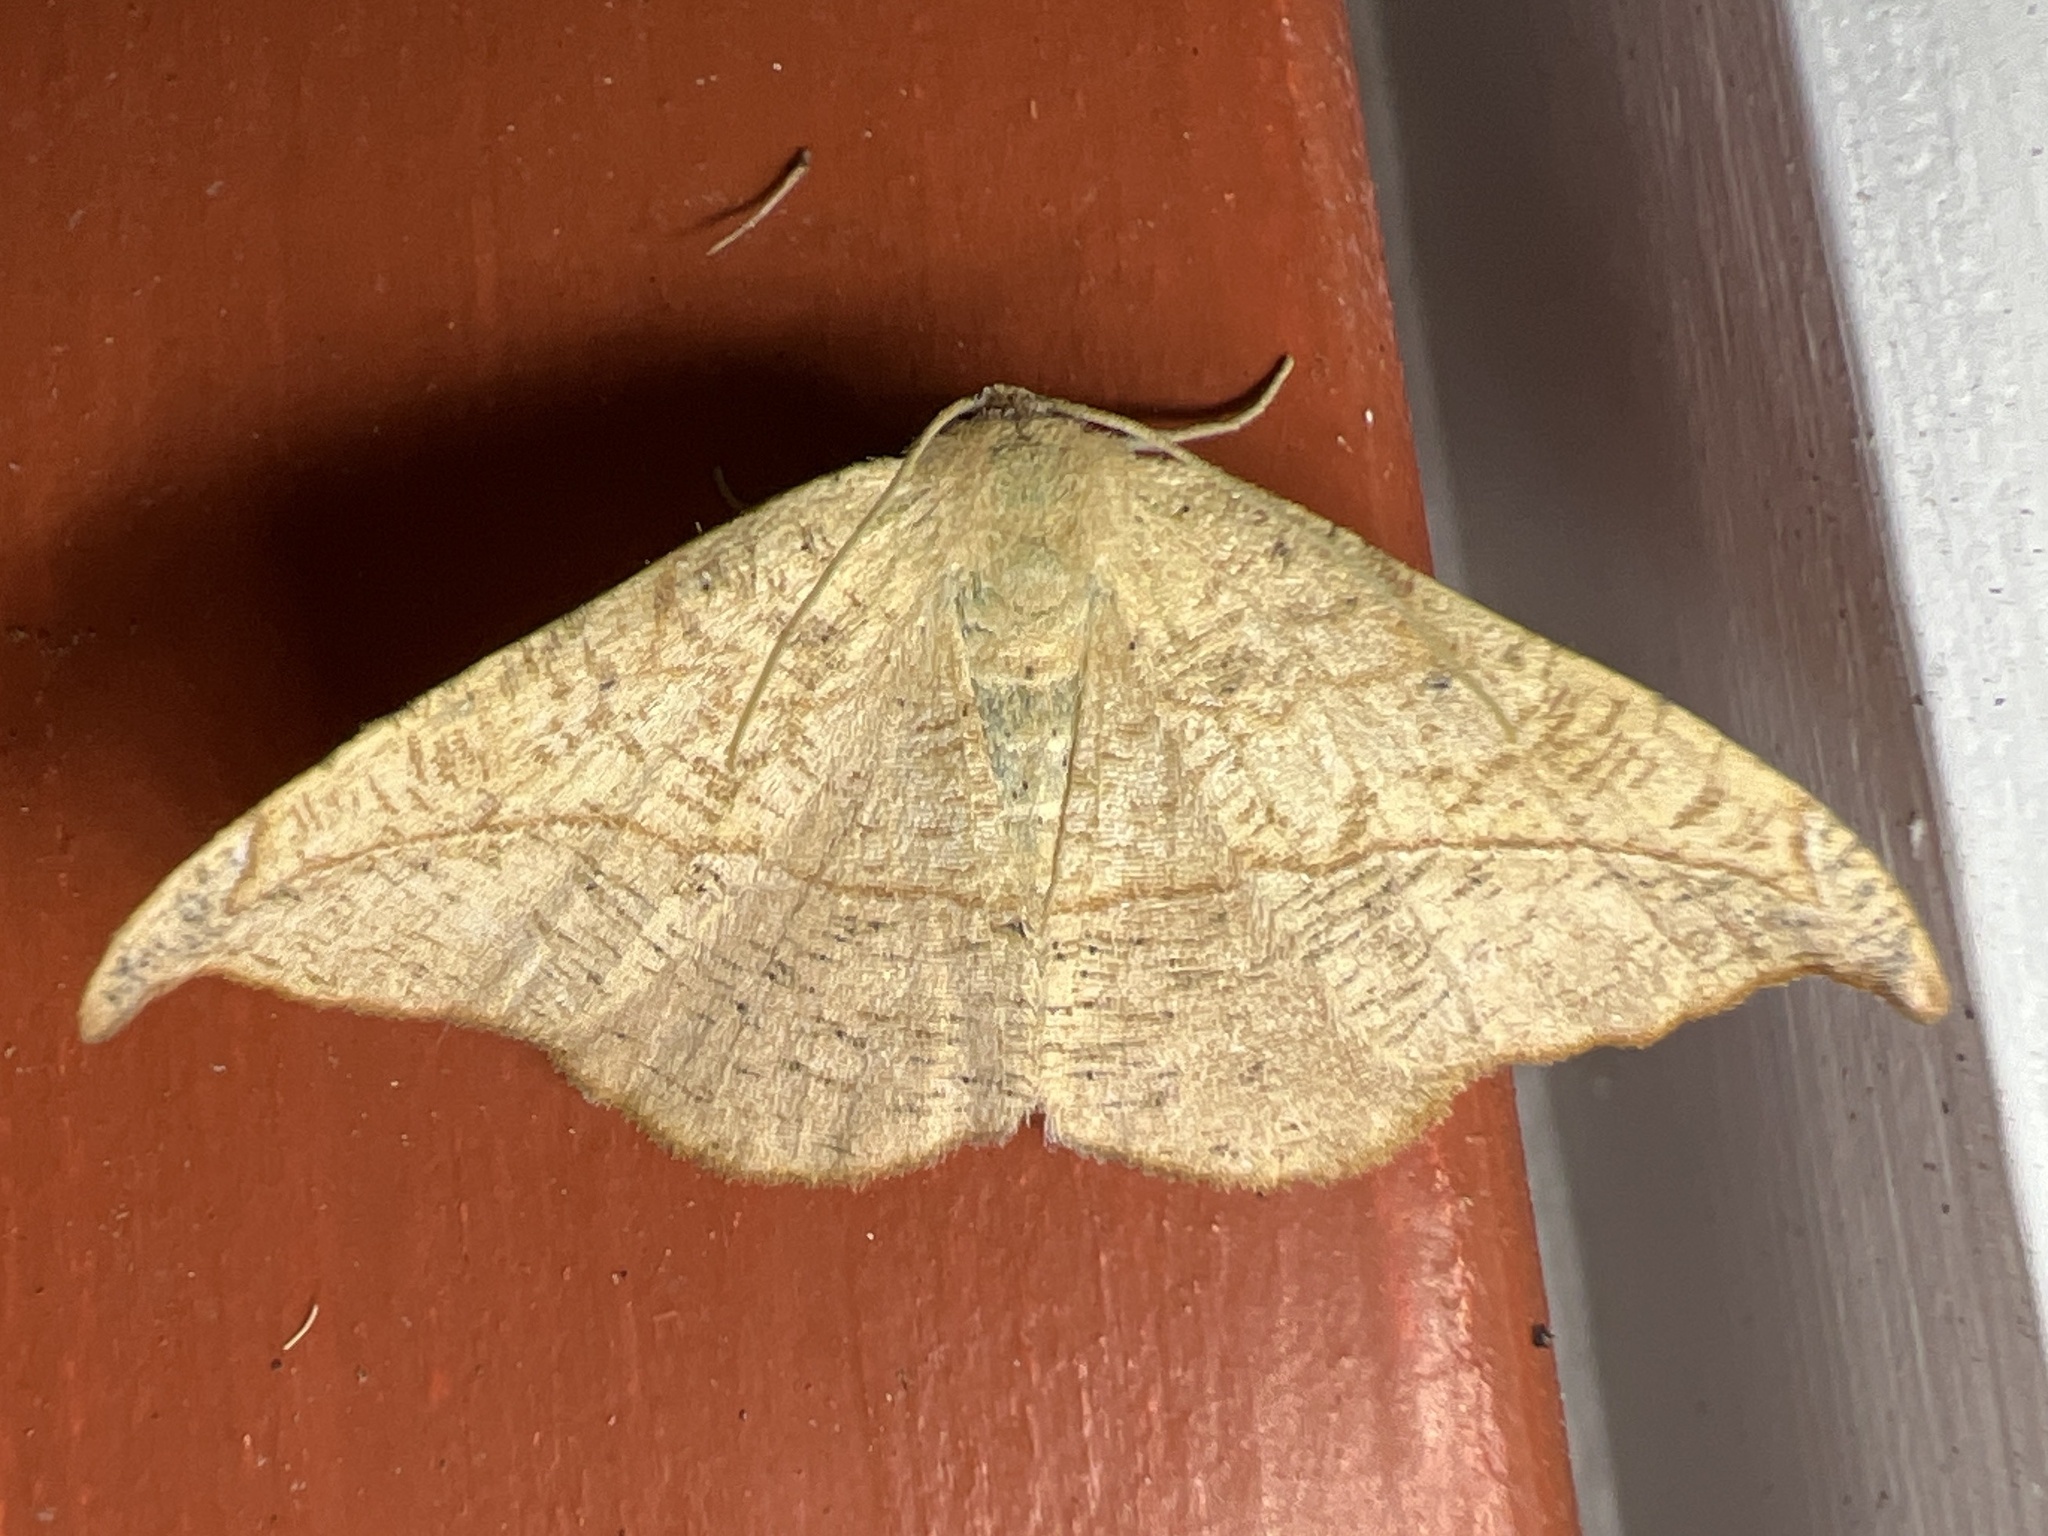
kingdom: Animalia
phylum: Arthropoda
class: Insecta
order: Lepidoptera
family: Geometridae
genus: Patalene
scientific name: Patalene olyzonaria
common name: Juniper geometer moth
